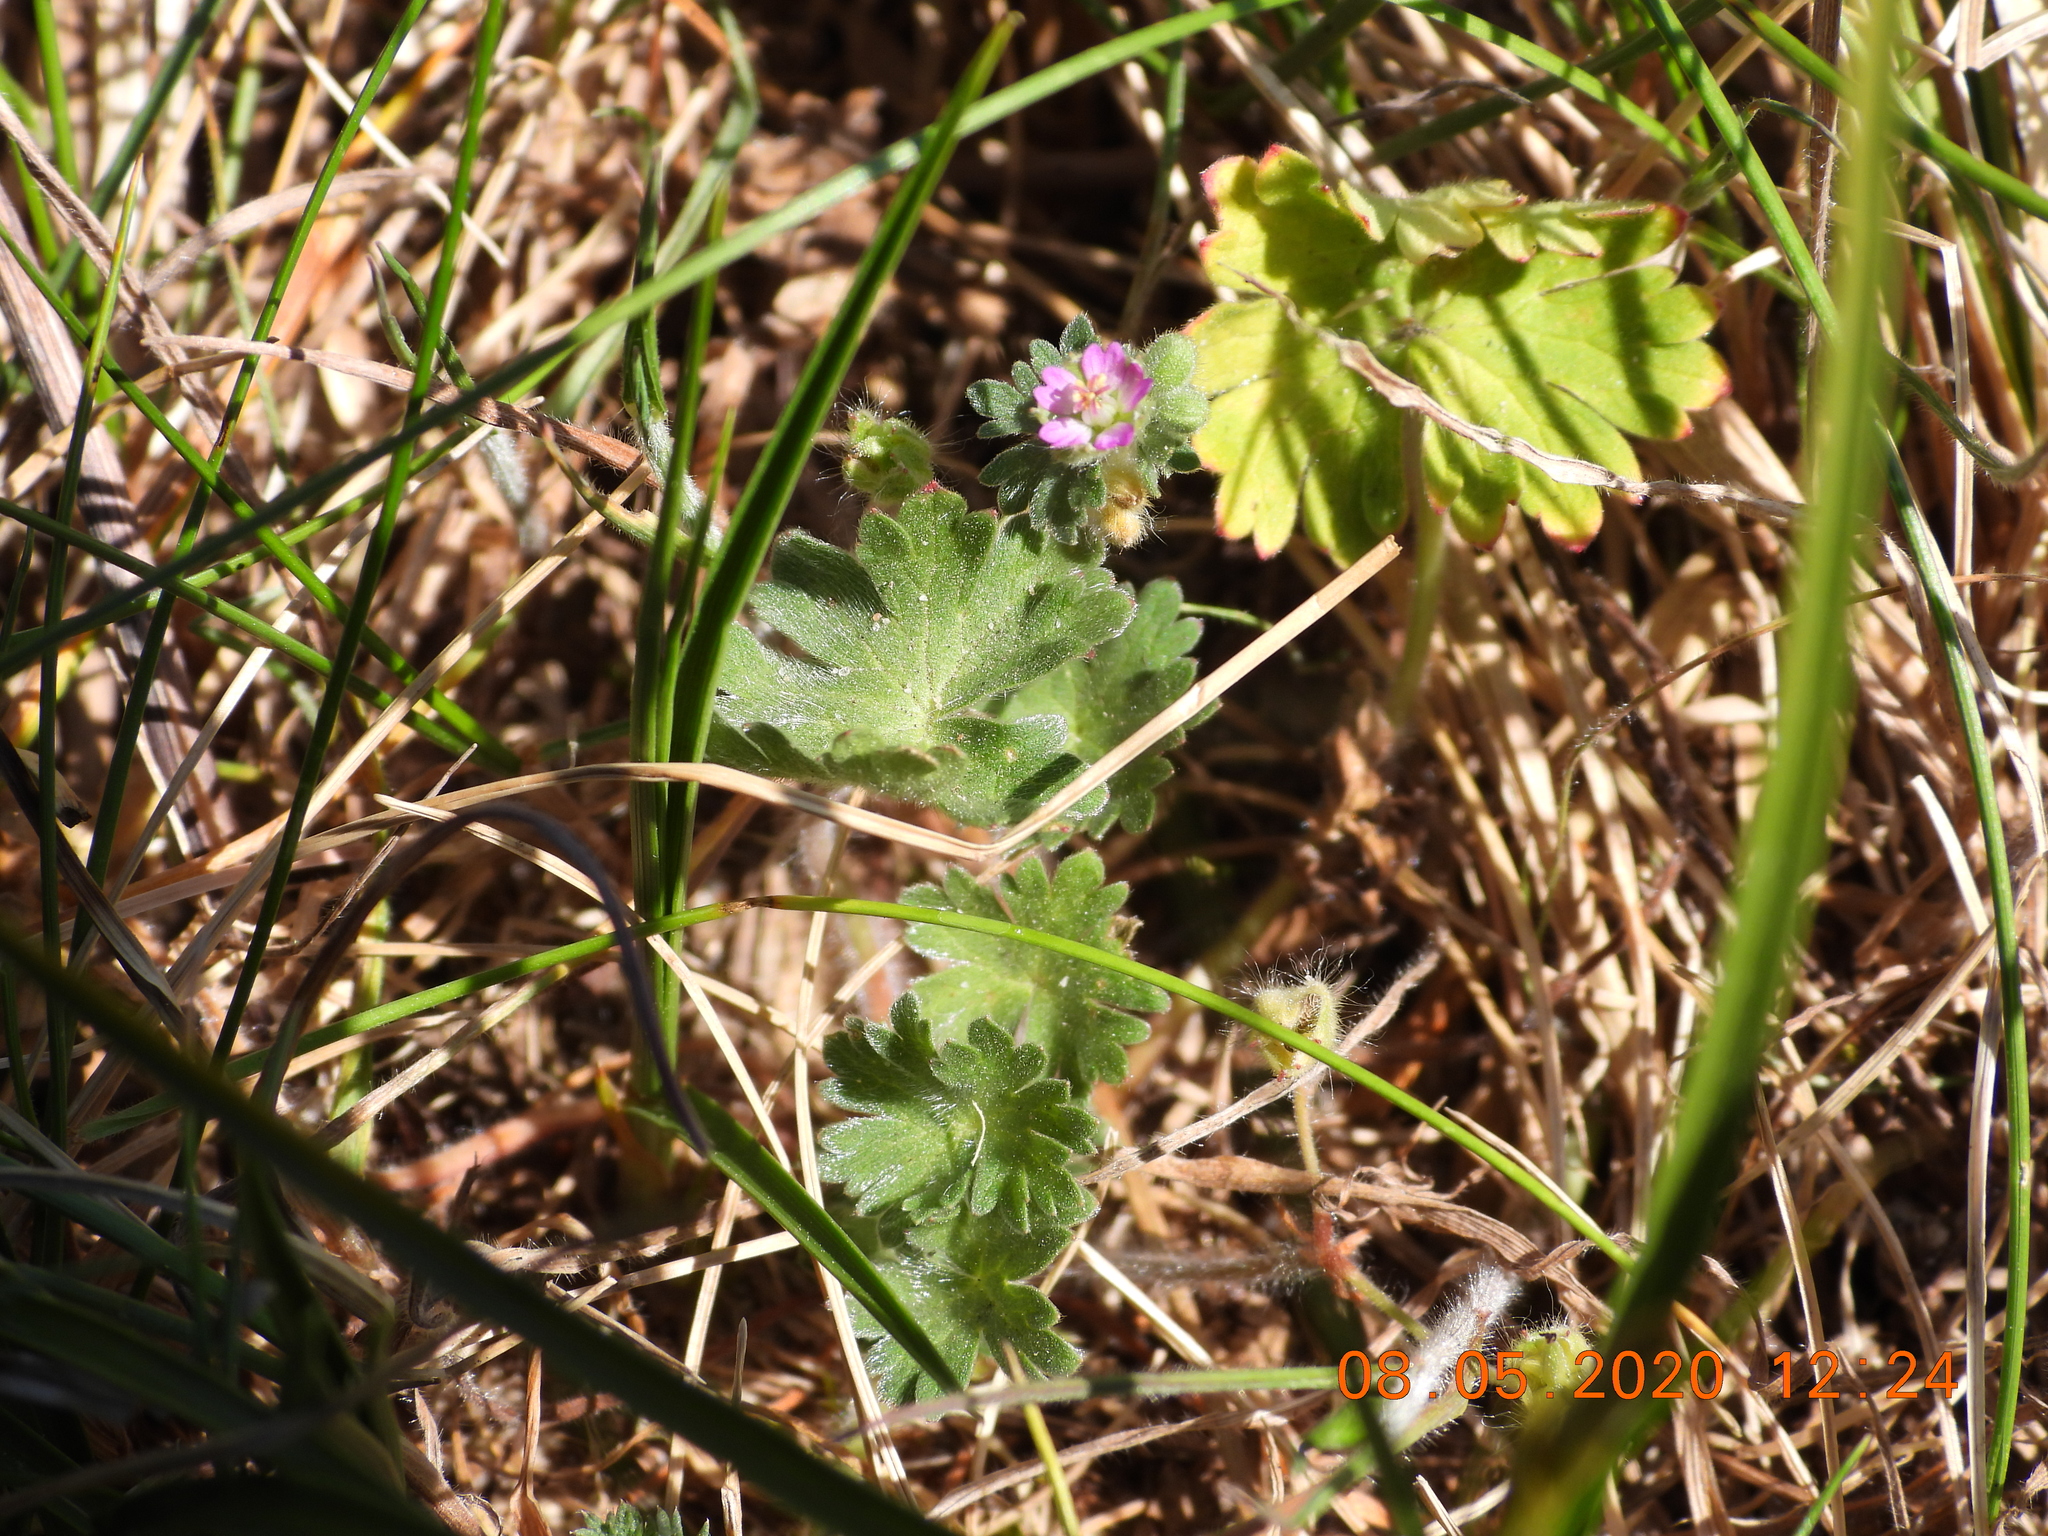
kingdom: Plantae
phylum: Tracheophyta
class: Magnoliopsida
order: Geraniales
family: Geraniaceae
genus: Geranium
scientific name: Geranium molle
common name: Dove's-foot crane's-bill
